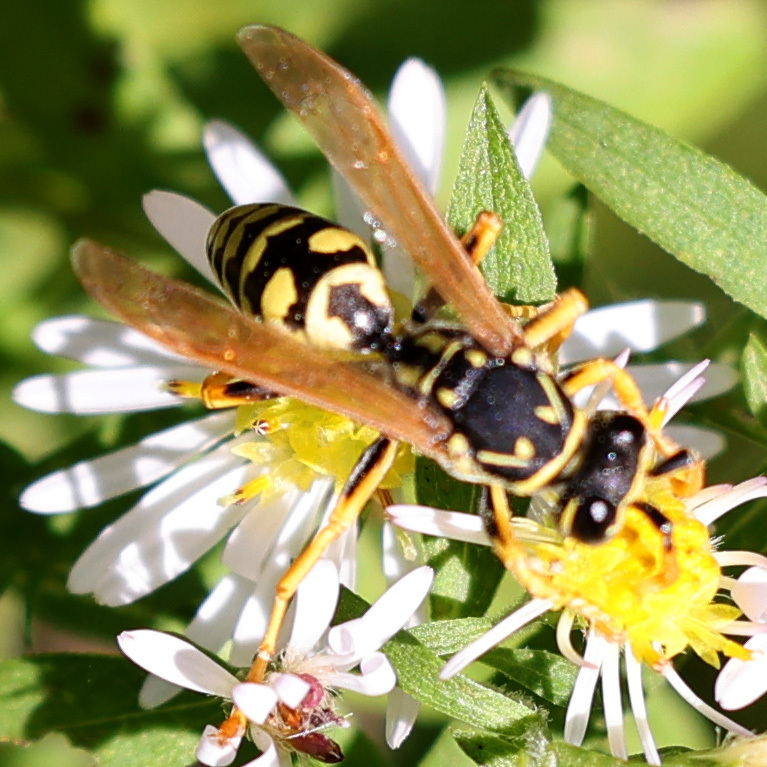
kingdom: Animalia
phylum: Arthropoda
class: Insecta
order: Hymenoptera
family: Eumenidae
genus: Polistes
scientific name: Polistes dominula
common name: Paper wasp
